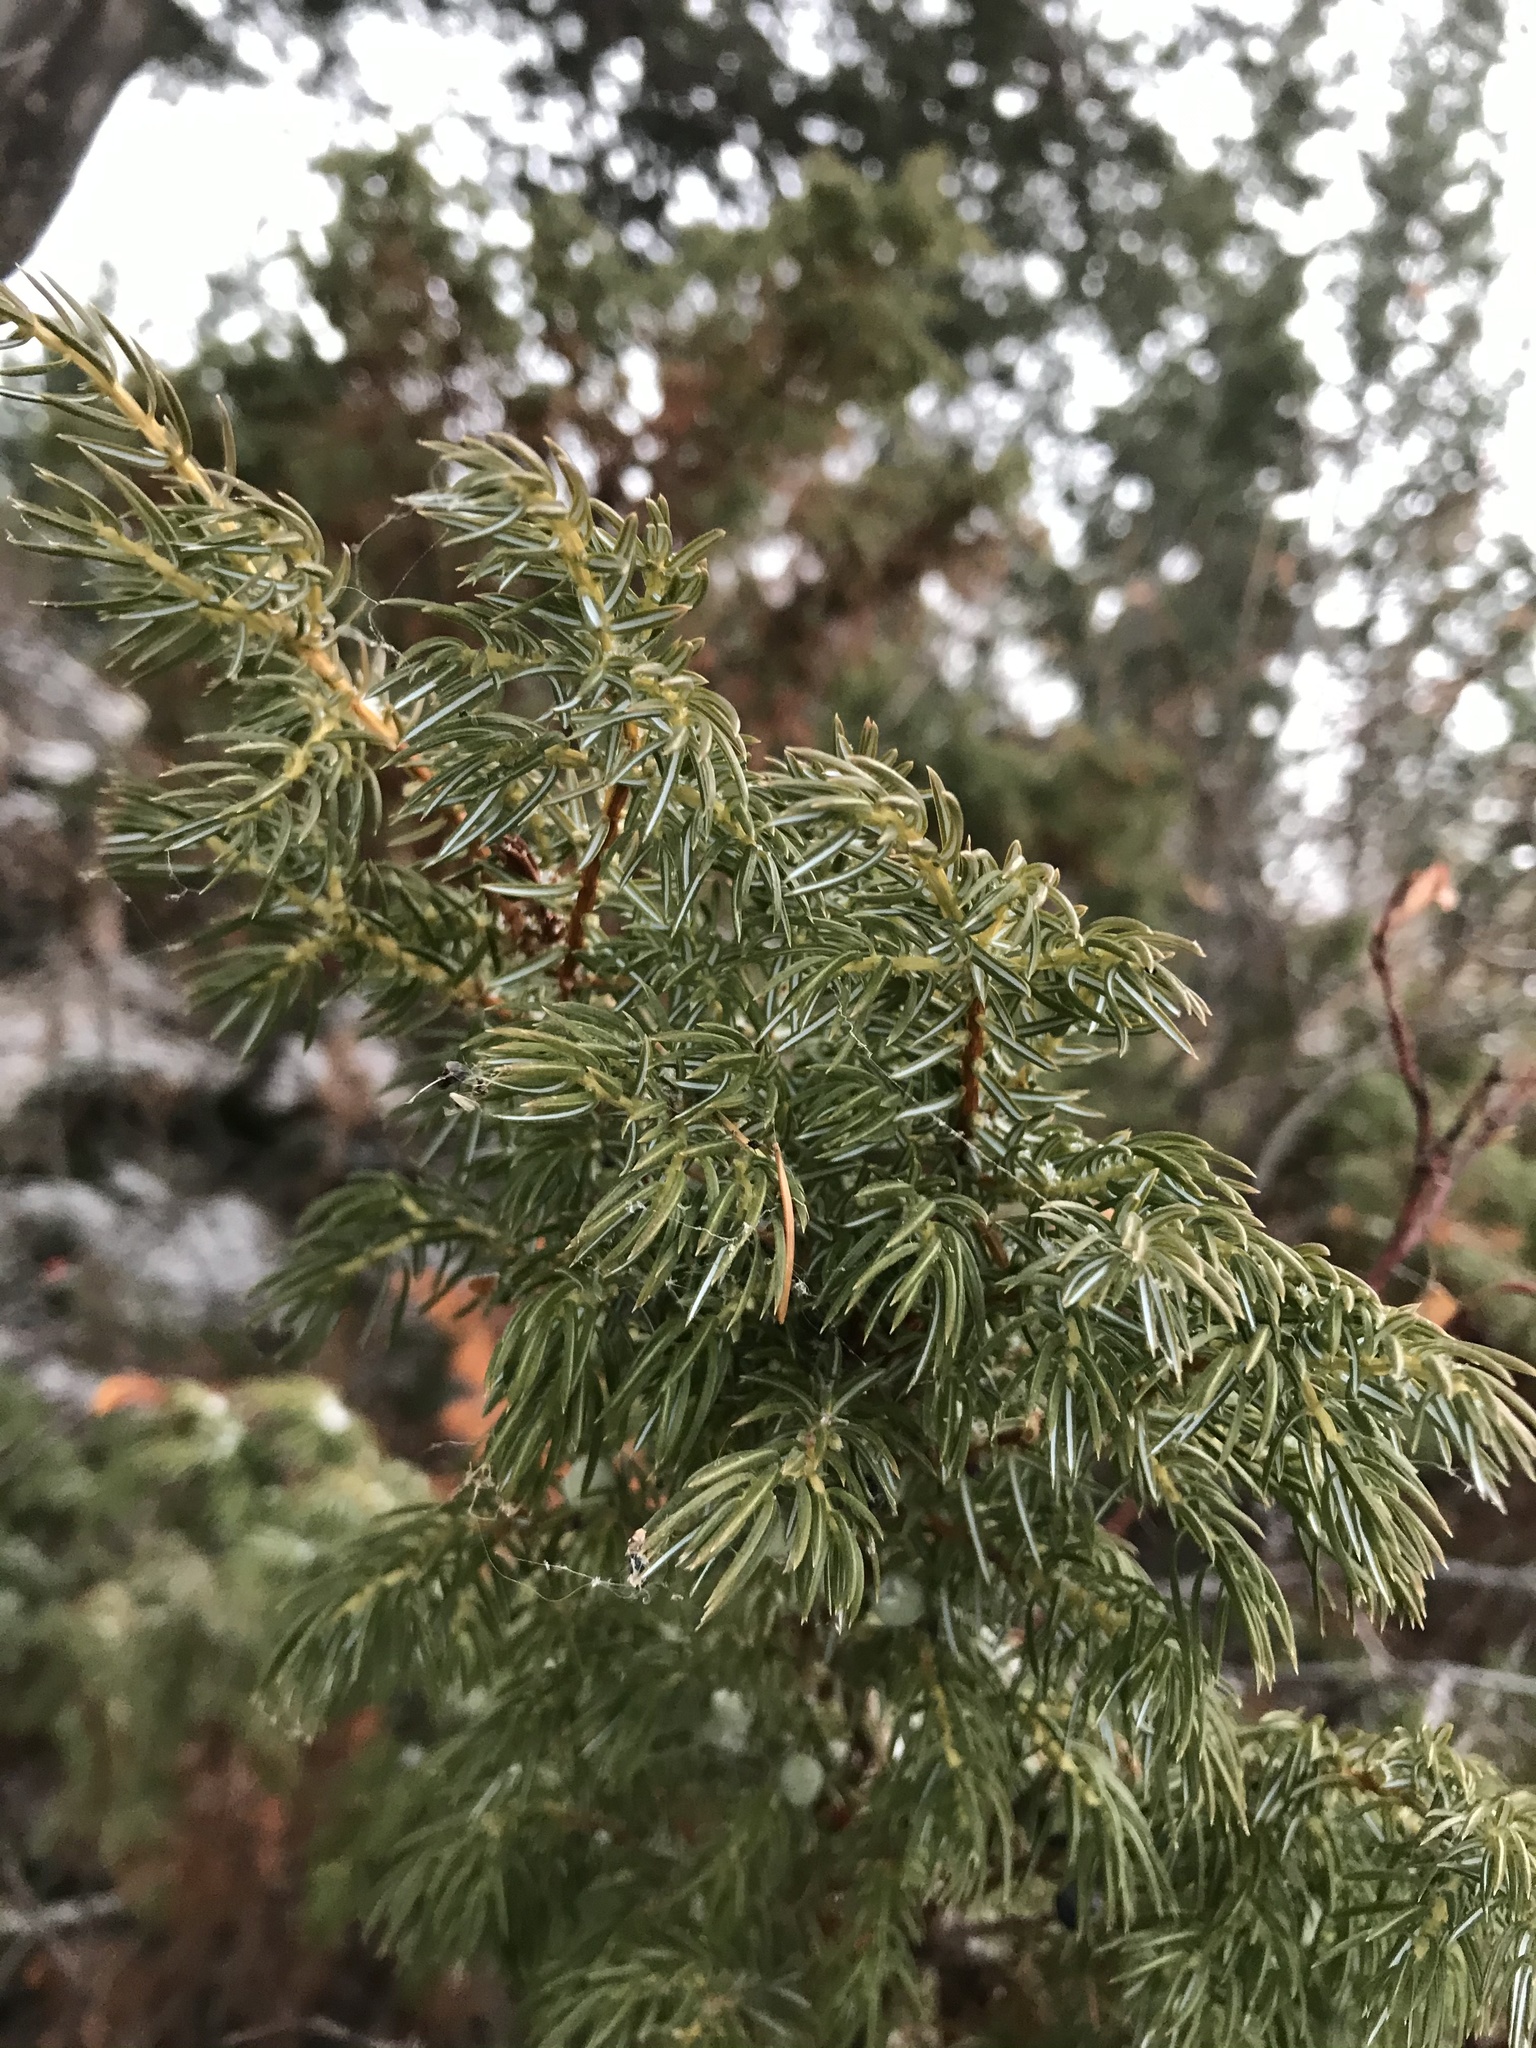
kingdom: Plantae
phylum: Tracheophyta
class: Pinopsida
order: Pinales
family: Cupressaceae
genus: Juniperus
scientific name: Juniperus communis
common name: Common juniper
